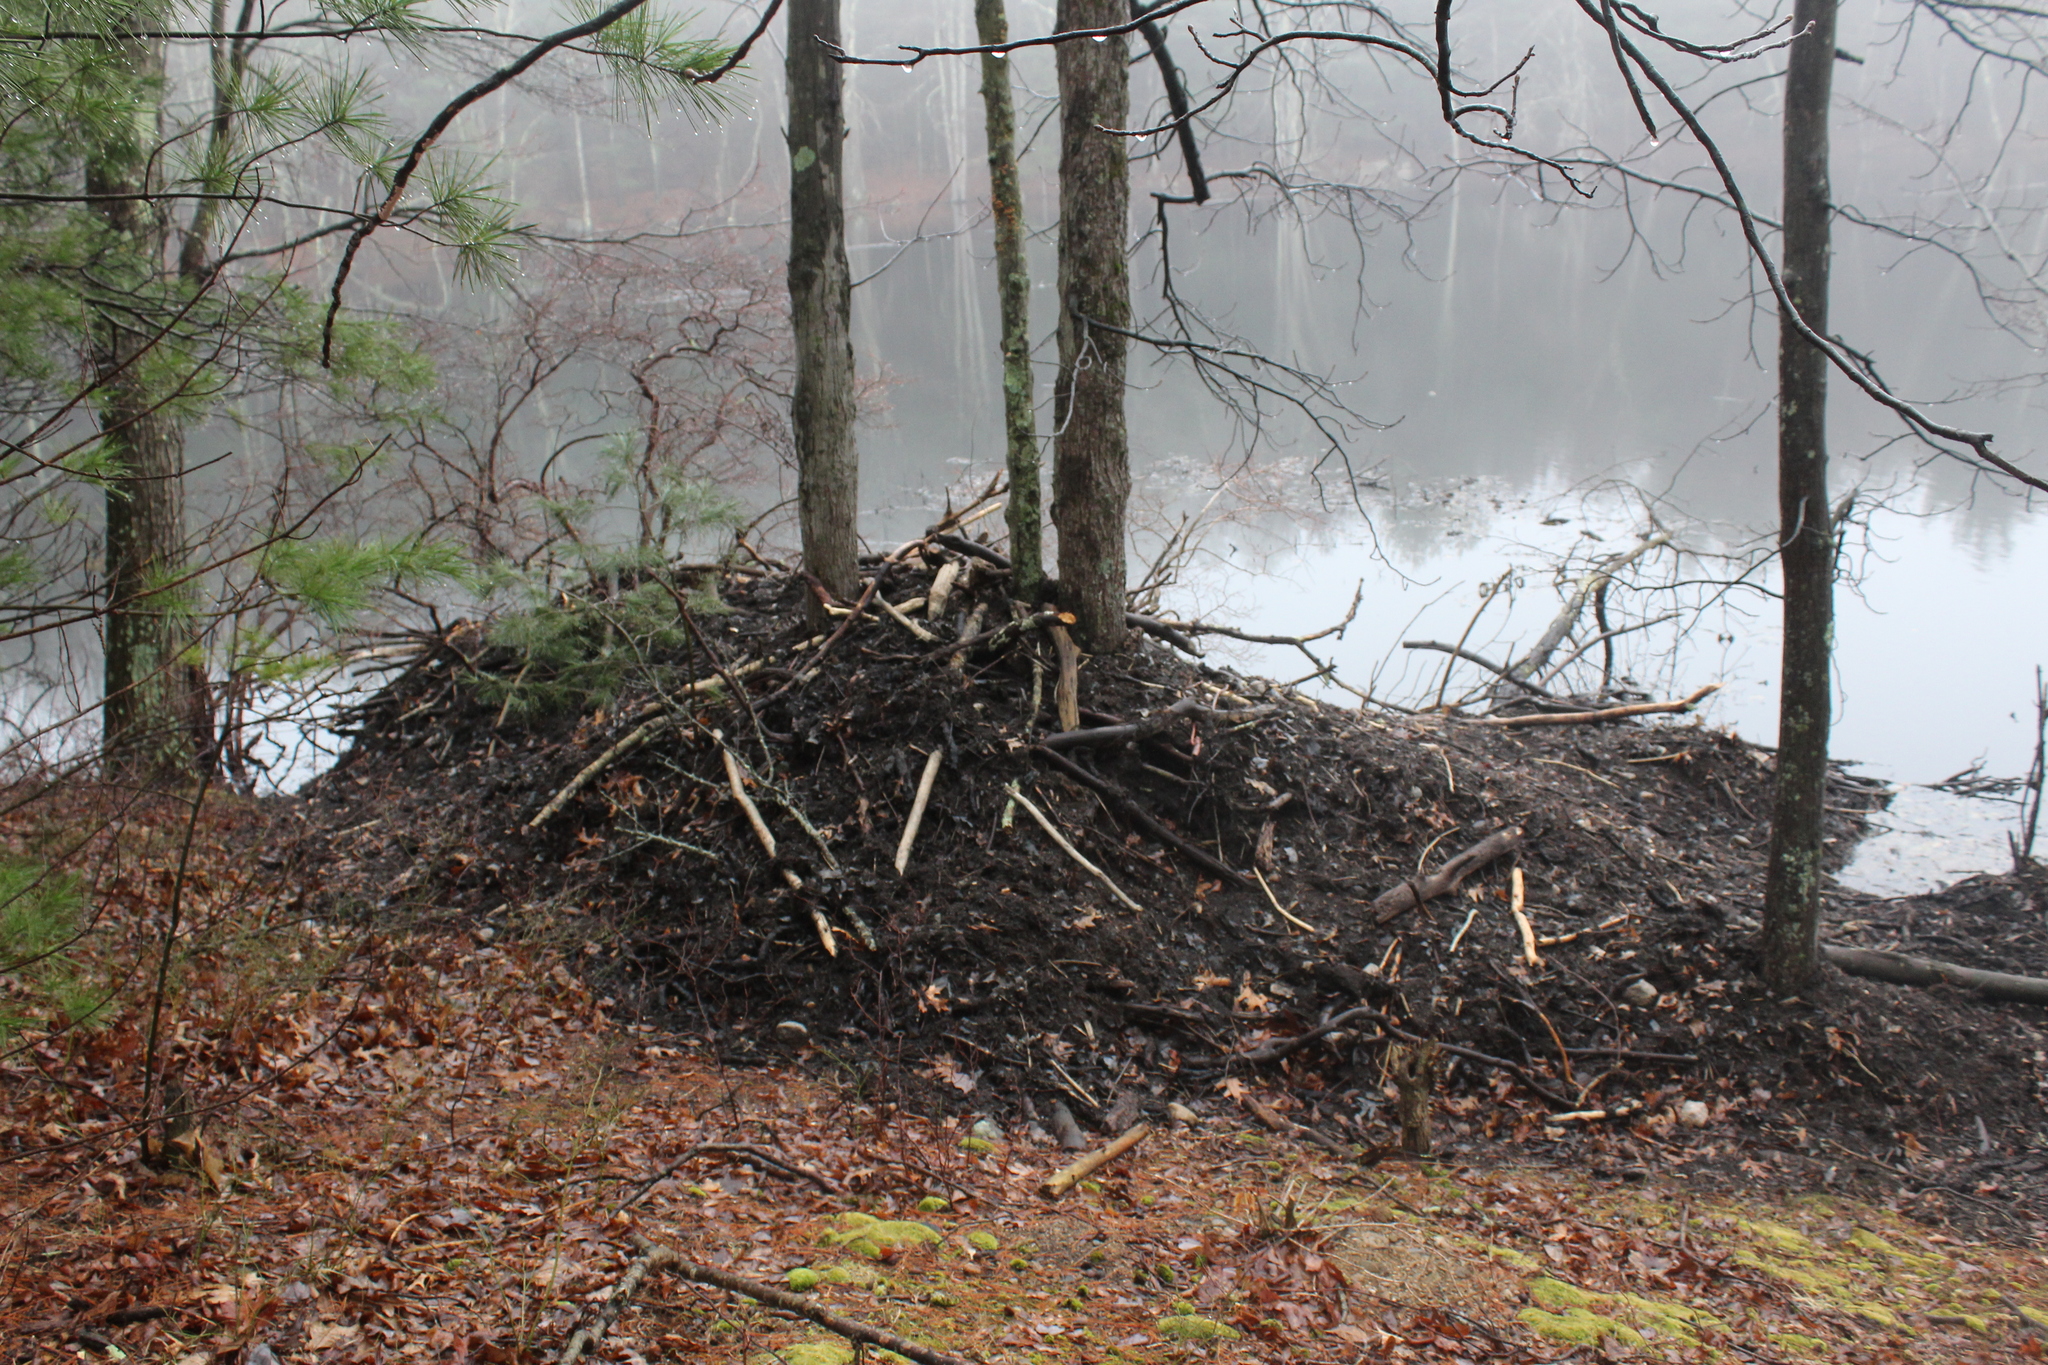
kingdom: Animalia
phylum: Chordata
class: Mammalia
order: Rodentia
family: Castoridae
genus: Castor
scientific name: Castor canadensis
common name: American beaver
